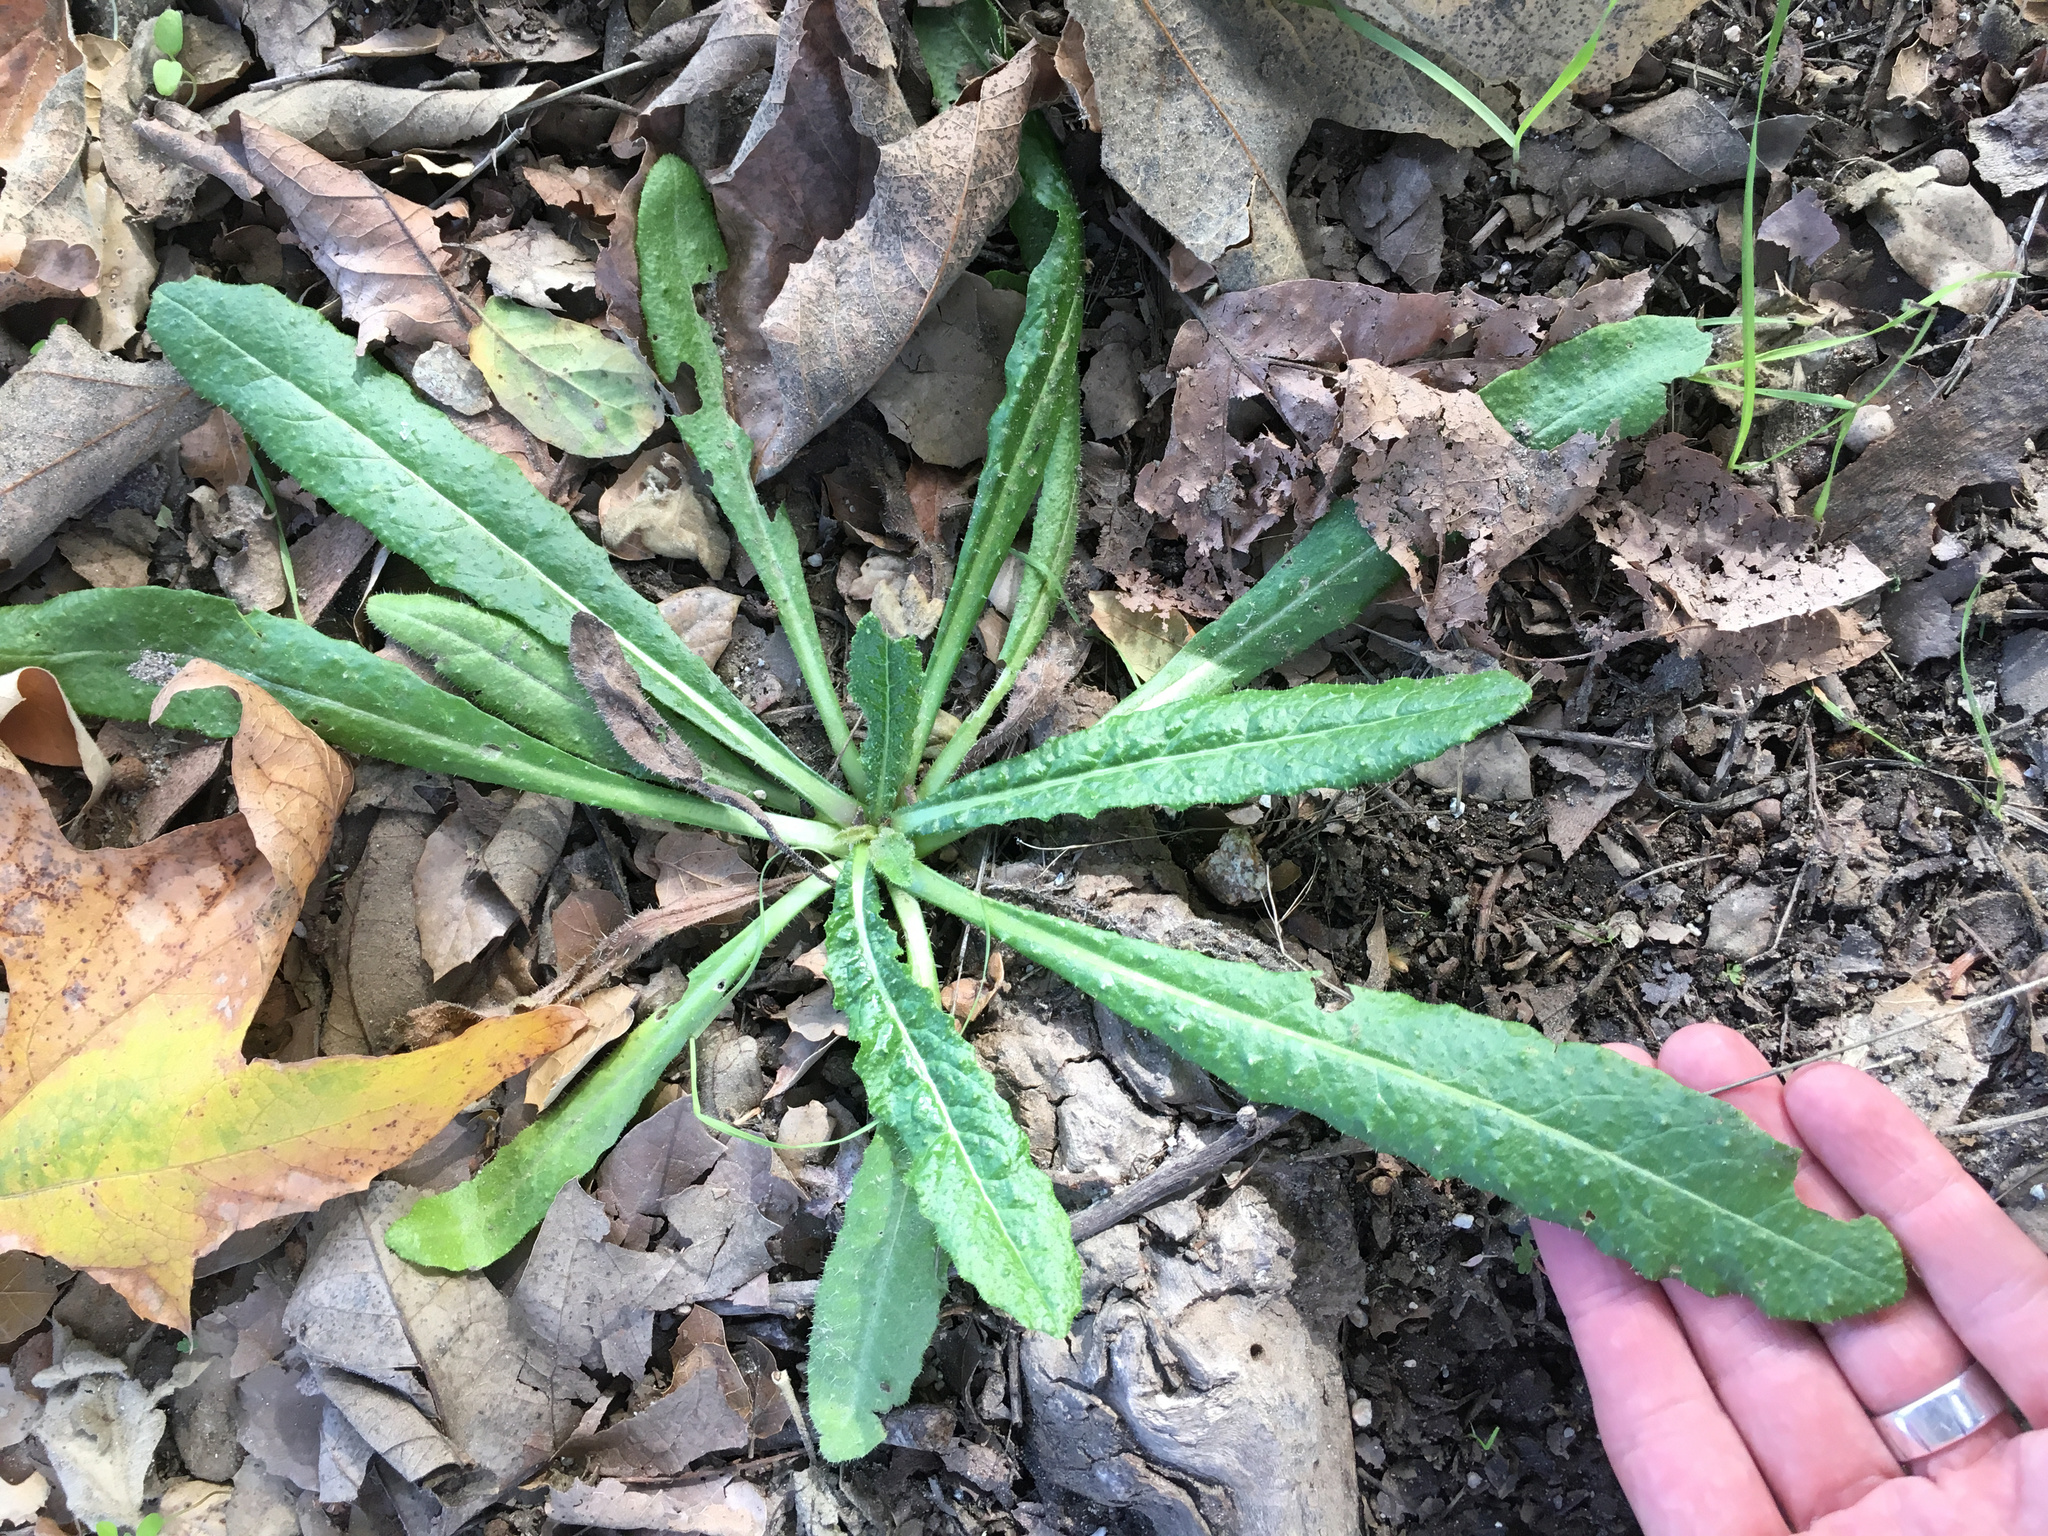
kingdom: Plantae
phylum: Tracheophyta
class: Magnoliopsida
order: Asterales
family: Asteraceae
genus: Helminthotheca
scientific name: Helminthotheca echioides
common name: Ox-tongue
